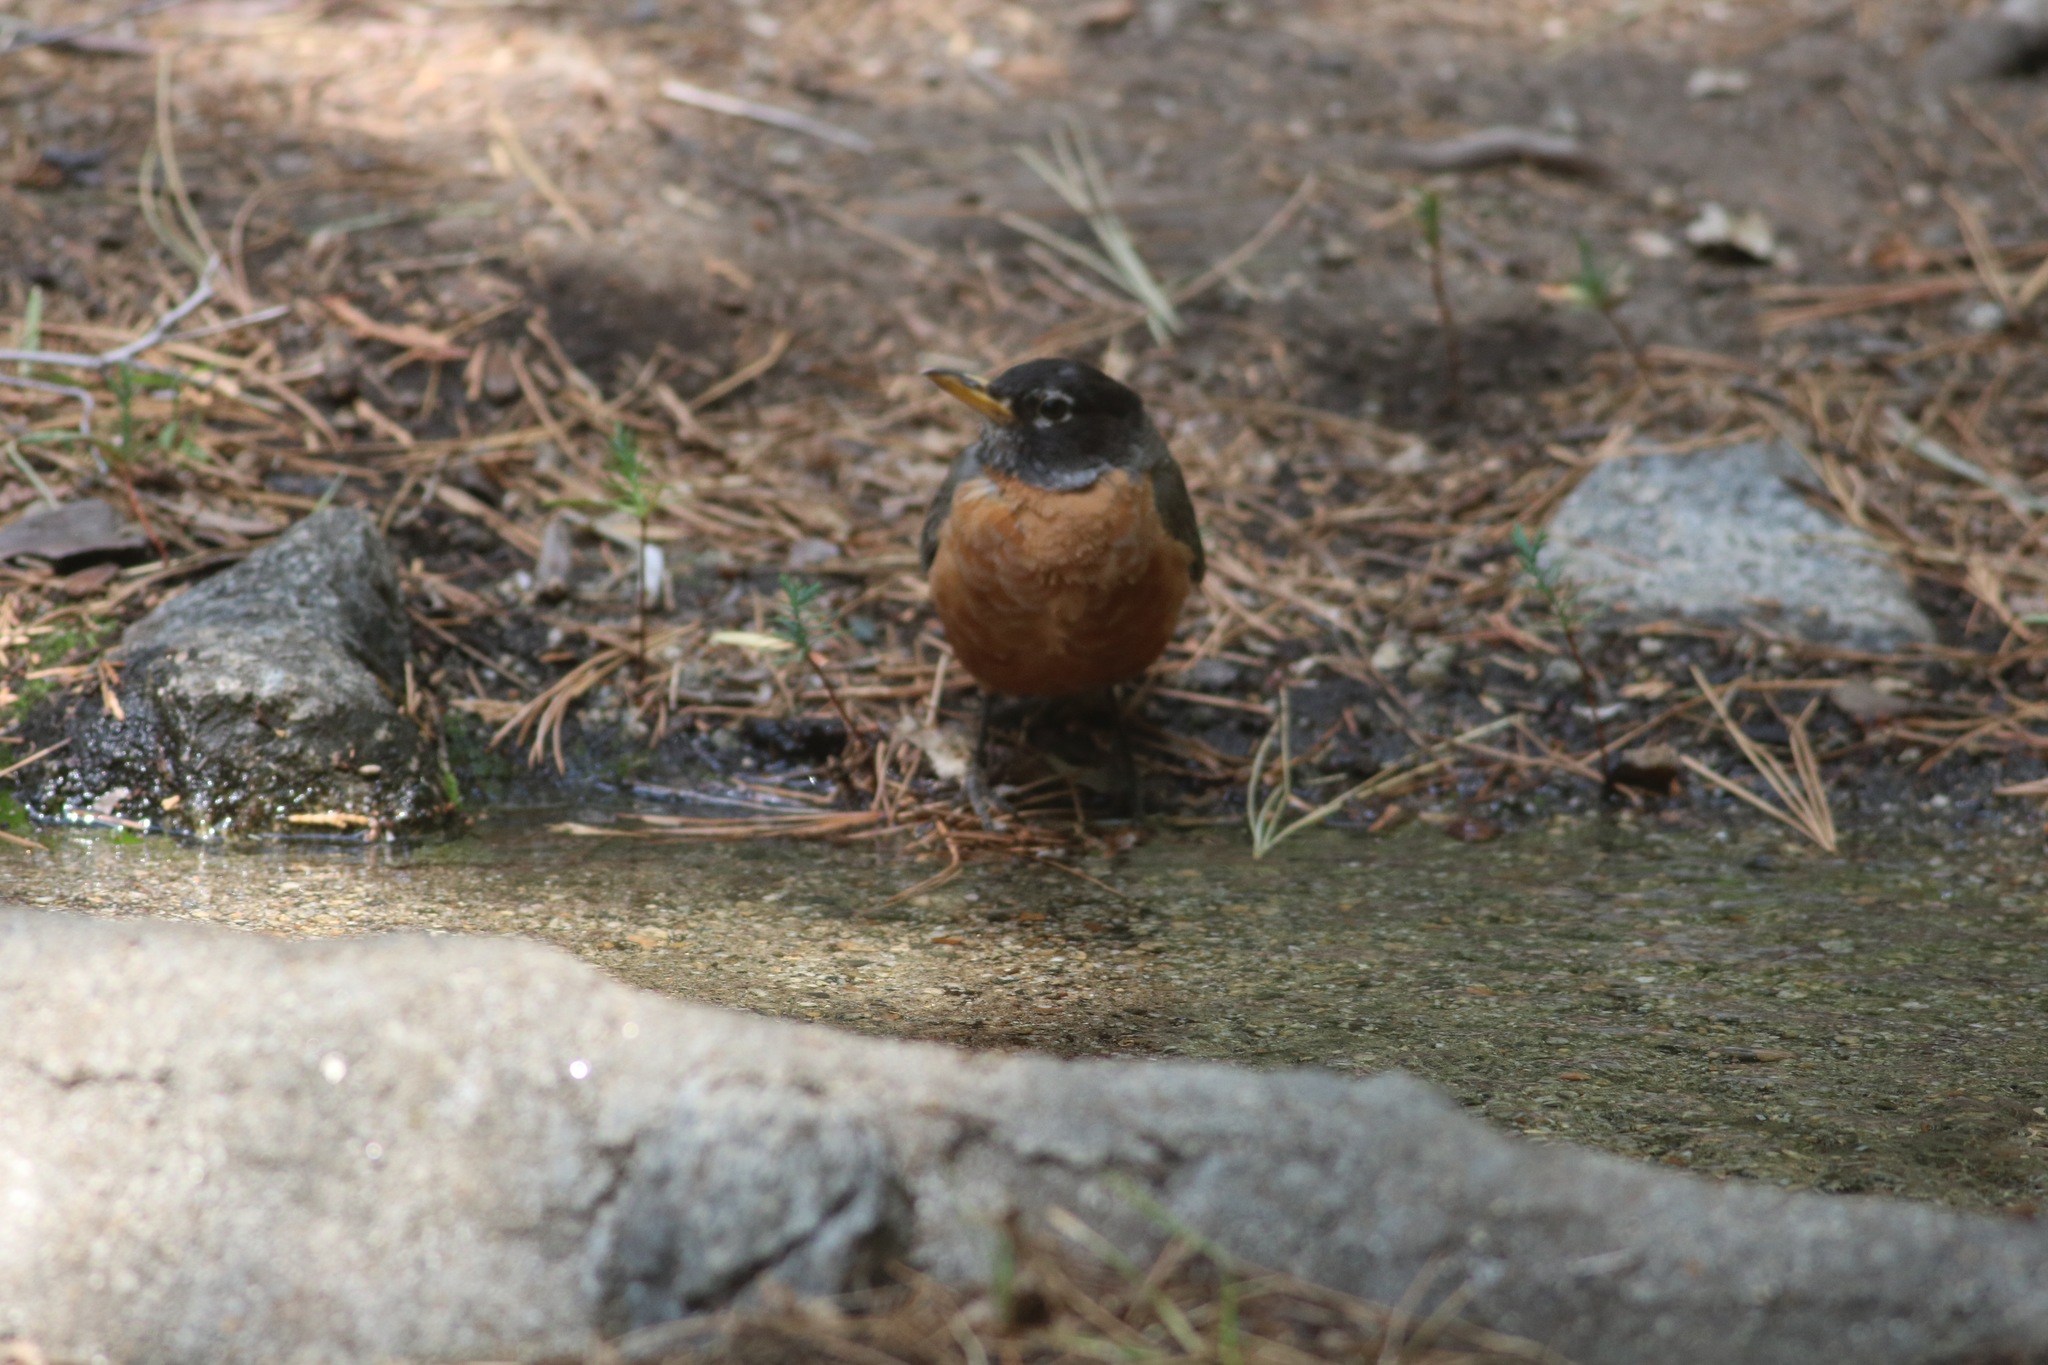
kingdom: Animalia
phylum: Chordata
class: Aves
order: Passeriformes
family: Turdidae
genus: Turdus
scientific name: Turdus migratorius
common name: American robin
